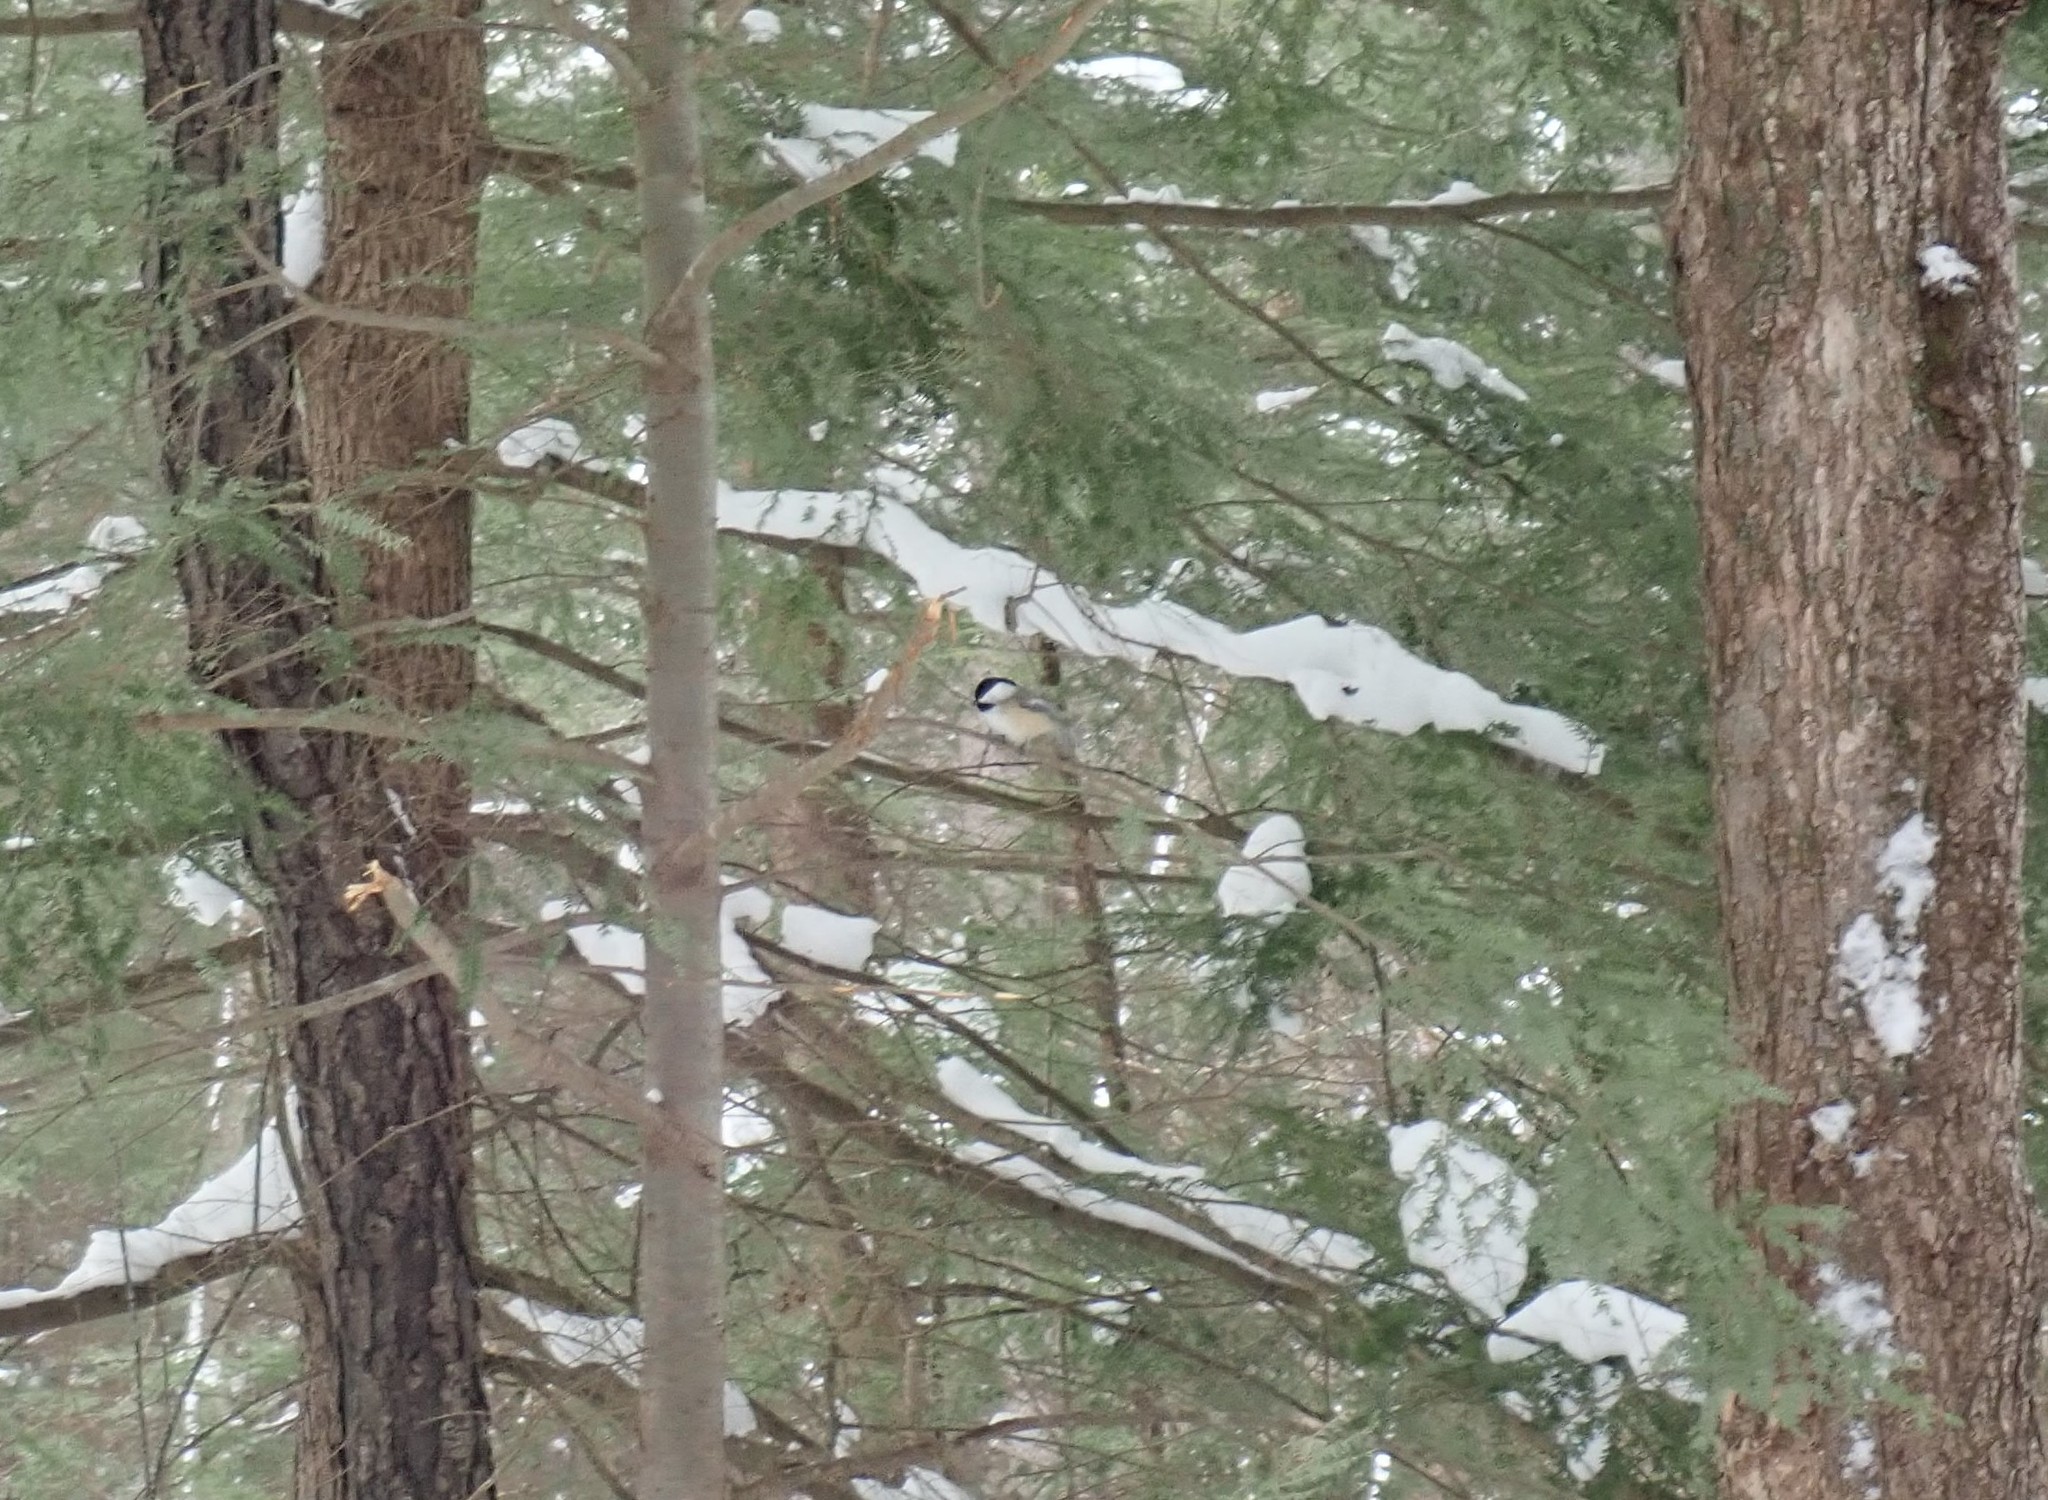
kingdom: Animalia
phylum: Chordata
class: Aves
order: Passeriformes
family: Paridae
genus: Poecile
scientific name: Poecile atricapillus
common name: Black-capped chickadee
